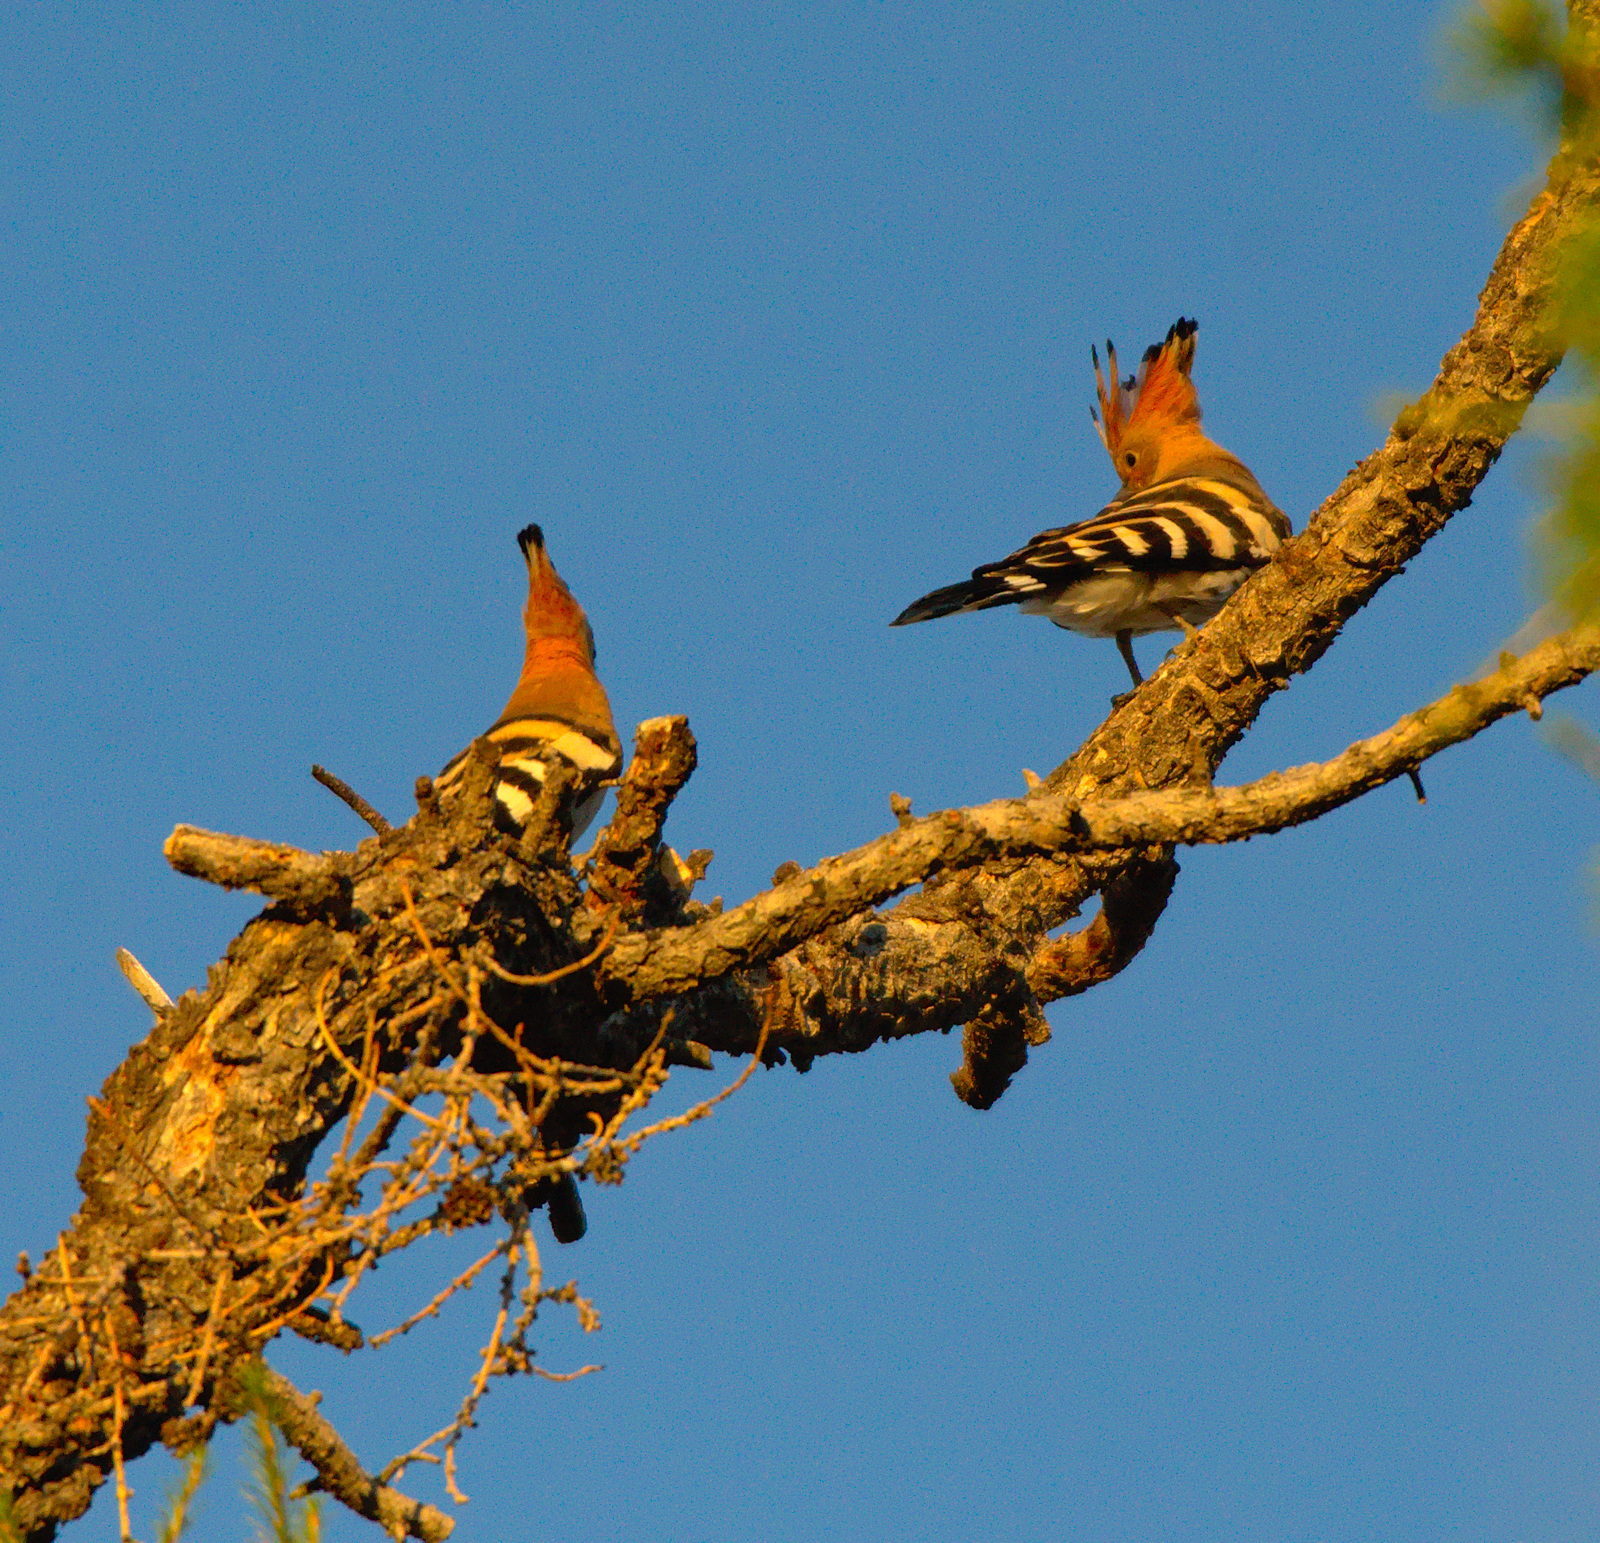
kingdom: Animalia
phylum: Chordata
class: Aves
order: Bucerotiformes
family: Upupidae
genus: Upupa
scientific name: Upupa epops
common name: Eurasian hoopoe
